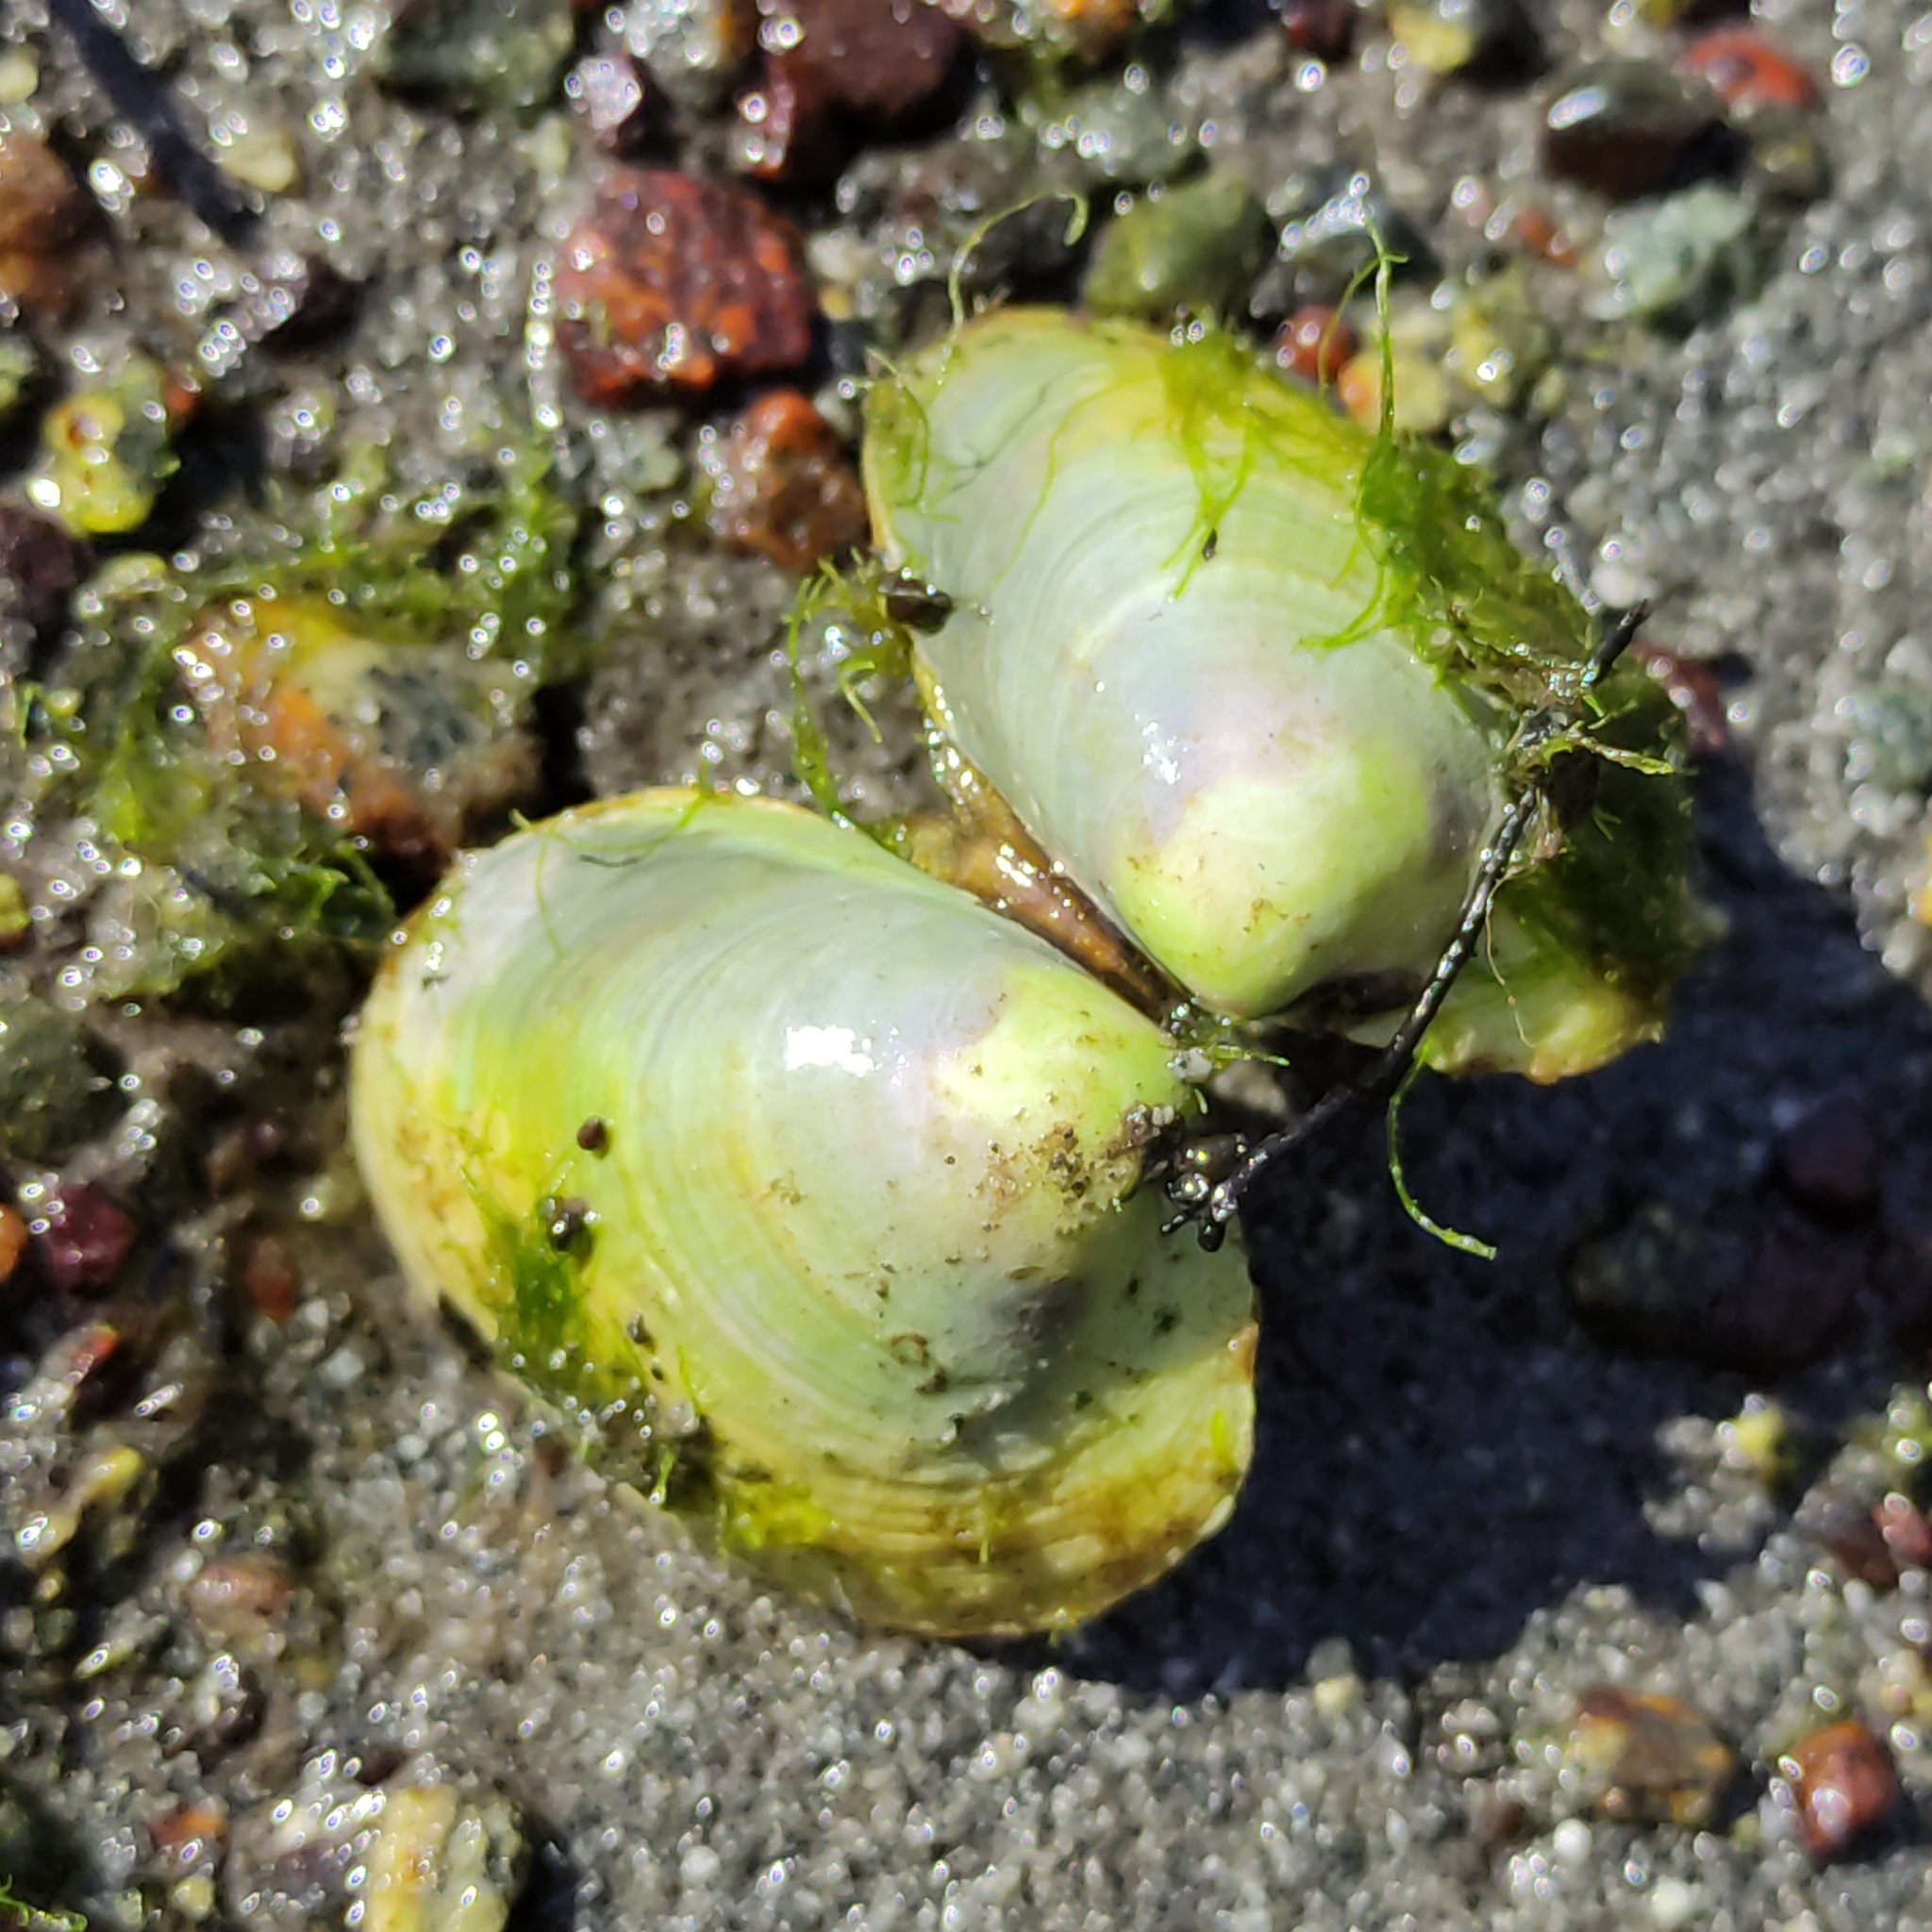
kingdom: Animalia
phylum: Mollusca
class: Bivalvia
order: Venerida
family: Veneridae
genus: Austrovenus
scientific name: Austrovenus stutchburyi
